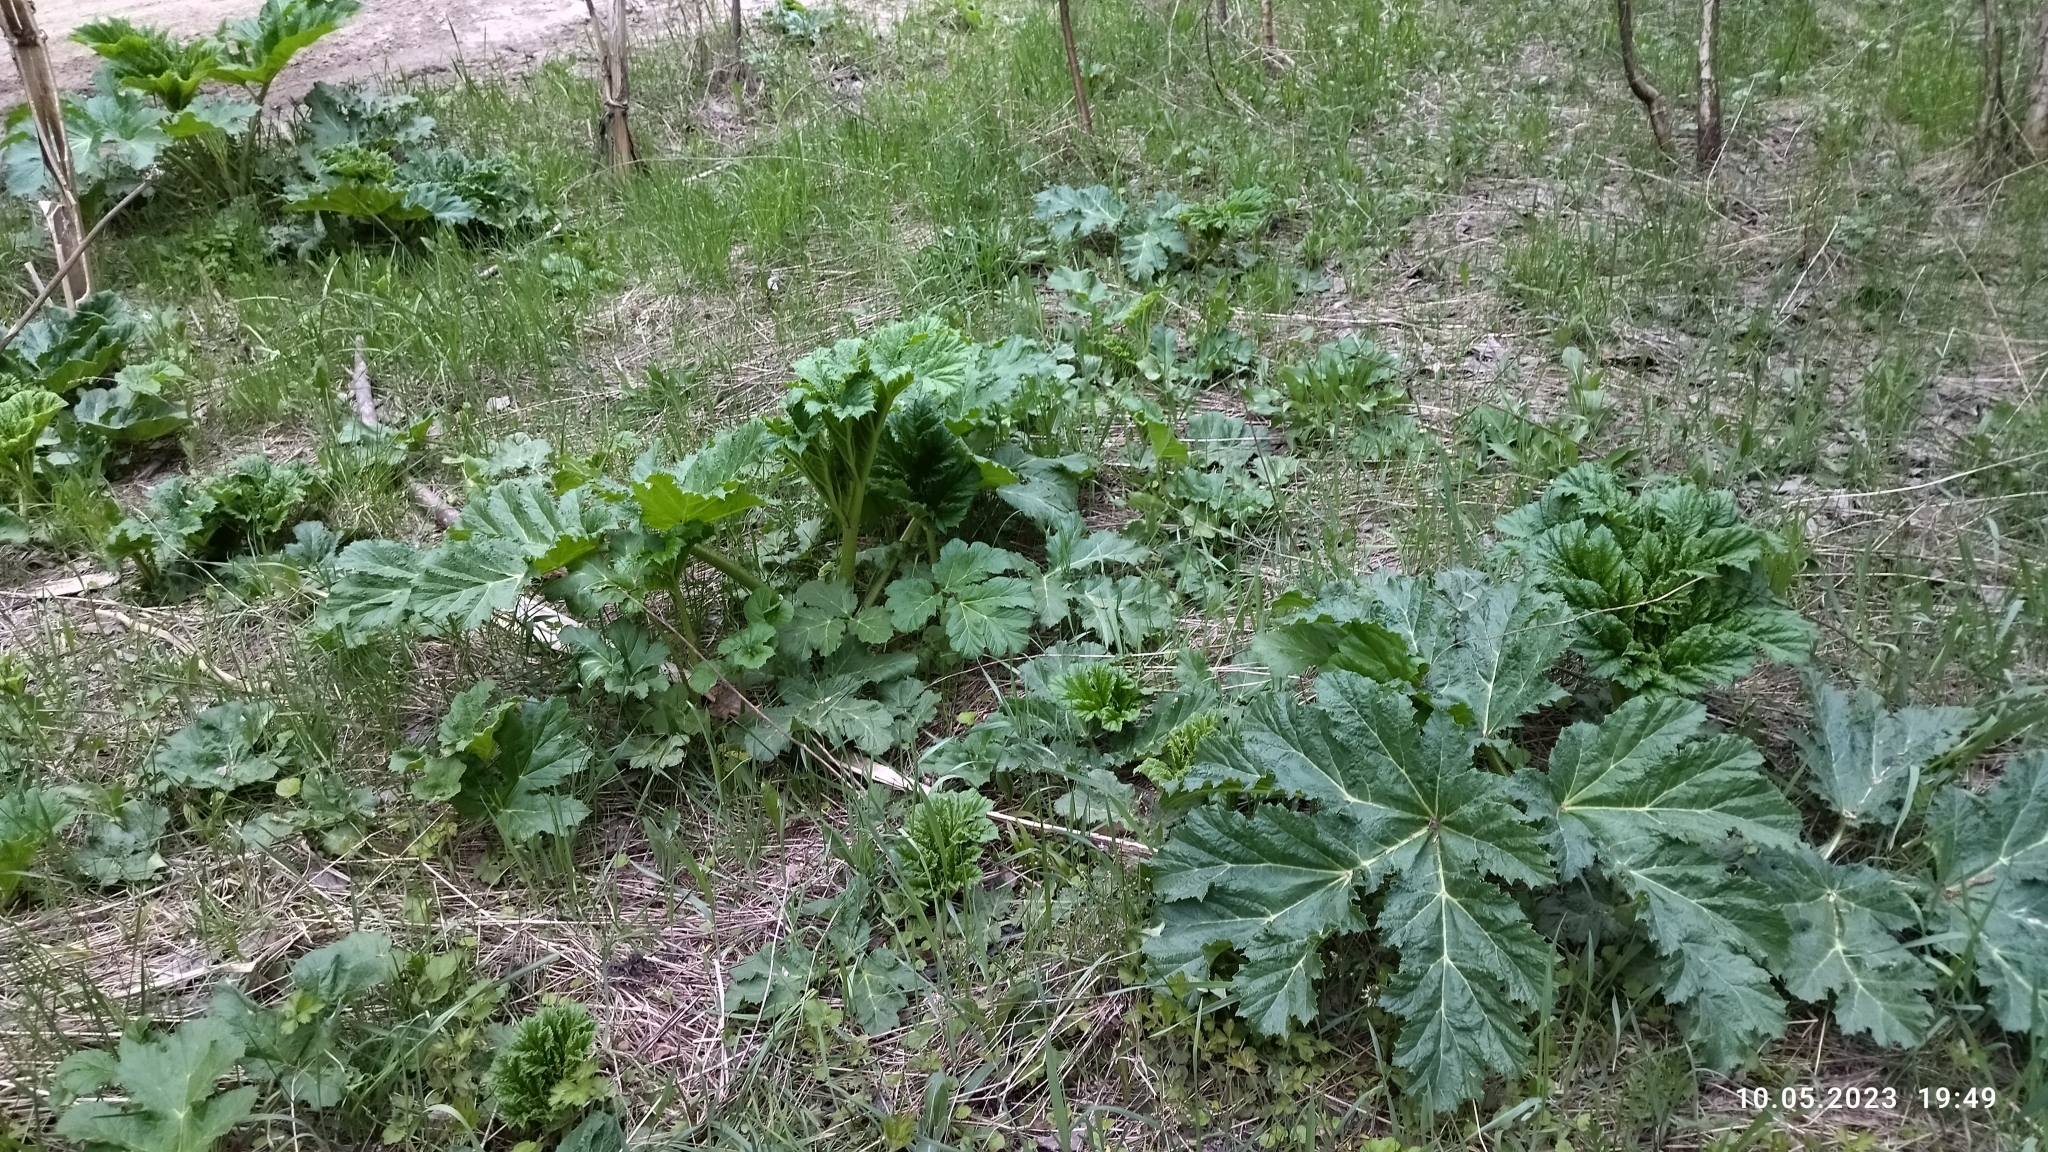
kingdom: Plantae
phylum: Tracheophyta
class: Magnoliopsida
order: Apiales
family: Apiaceae
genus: Heracleum
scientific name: Heracleum sosnowskyi
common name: Sosnowsky's hogweed
